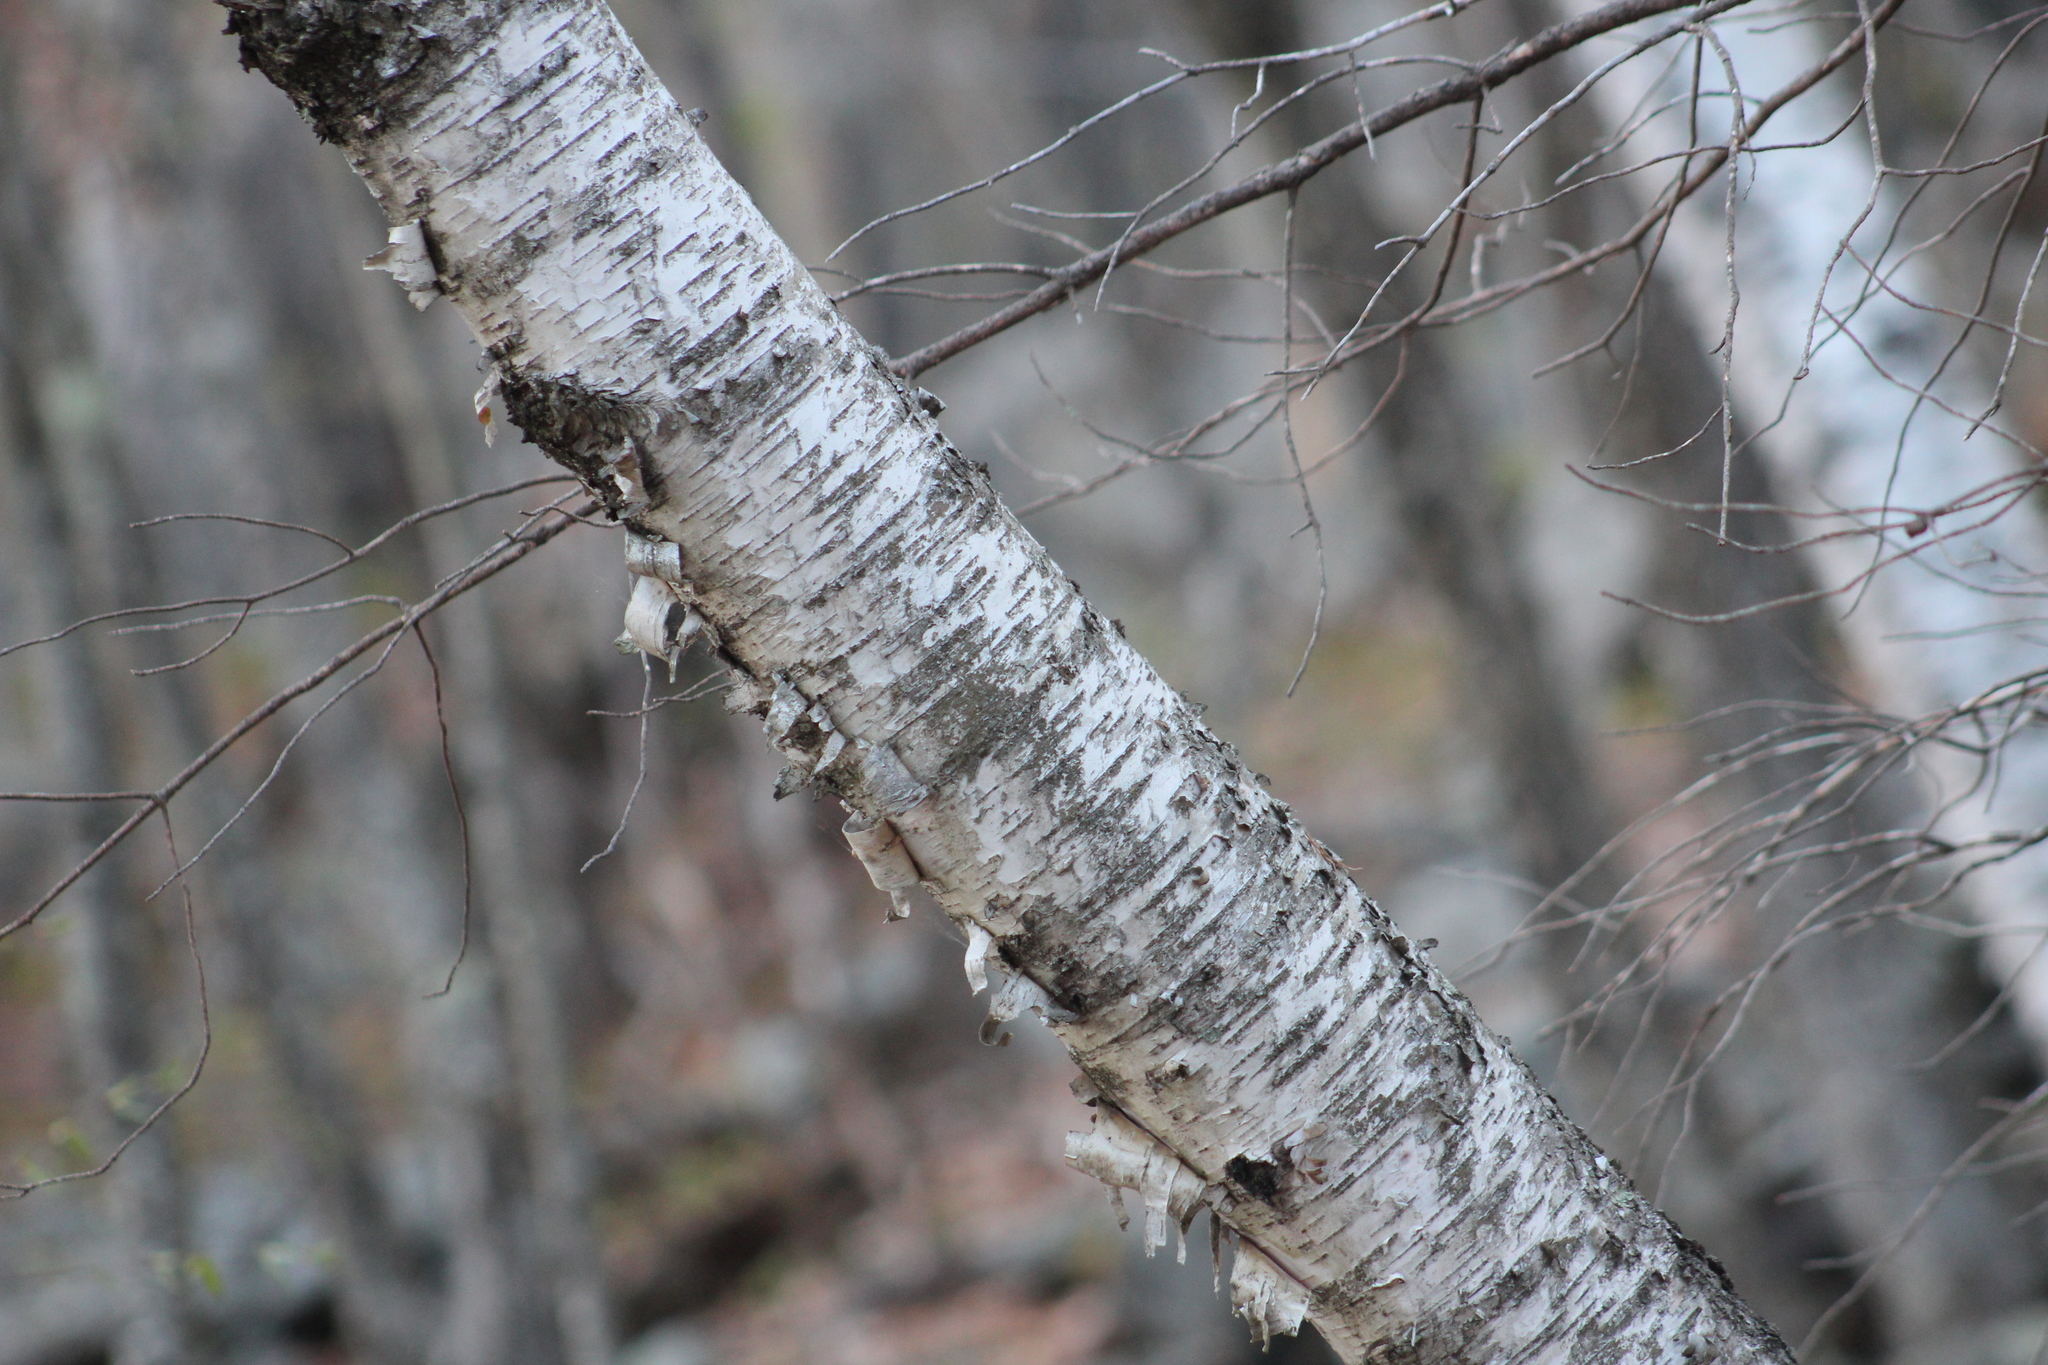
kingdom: Plantae
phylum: Tracheophyta
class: Magnoliopsida
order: Fagales
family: Betulaceae
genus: Betula
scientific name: Betula papyrifera
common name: Paper birch
